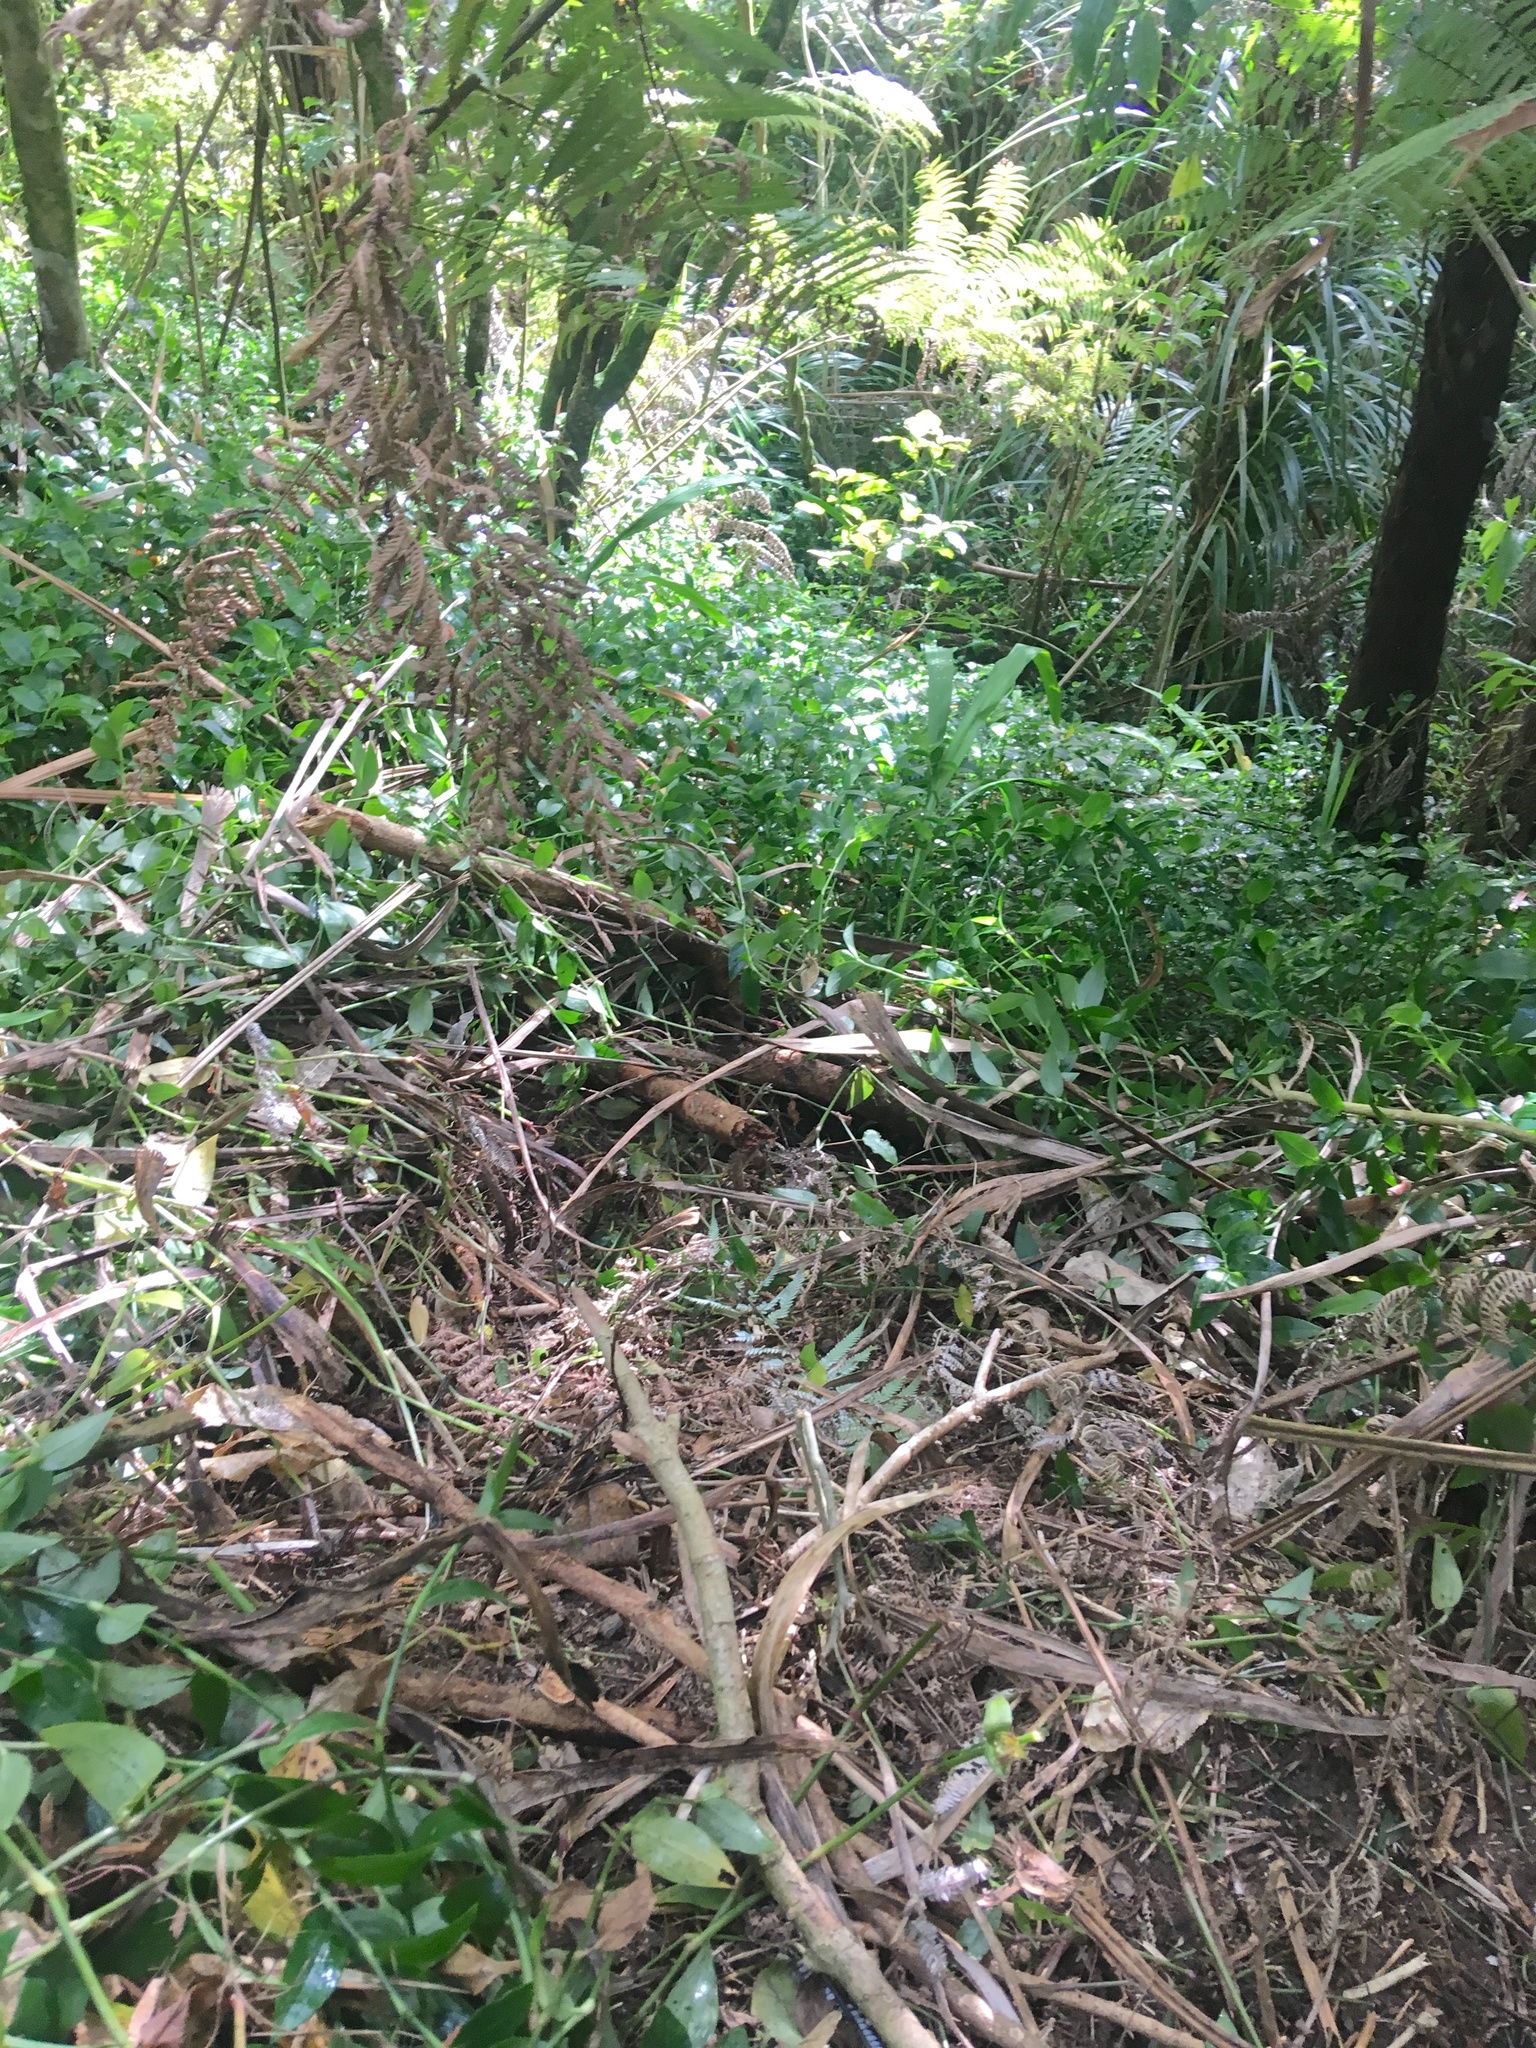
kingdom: Plantae
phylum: Tracheophyta
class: Liliopsida
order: Pandanales
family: Pandanaceae
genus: Freycinetia
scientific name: Freycinetia banksii
